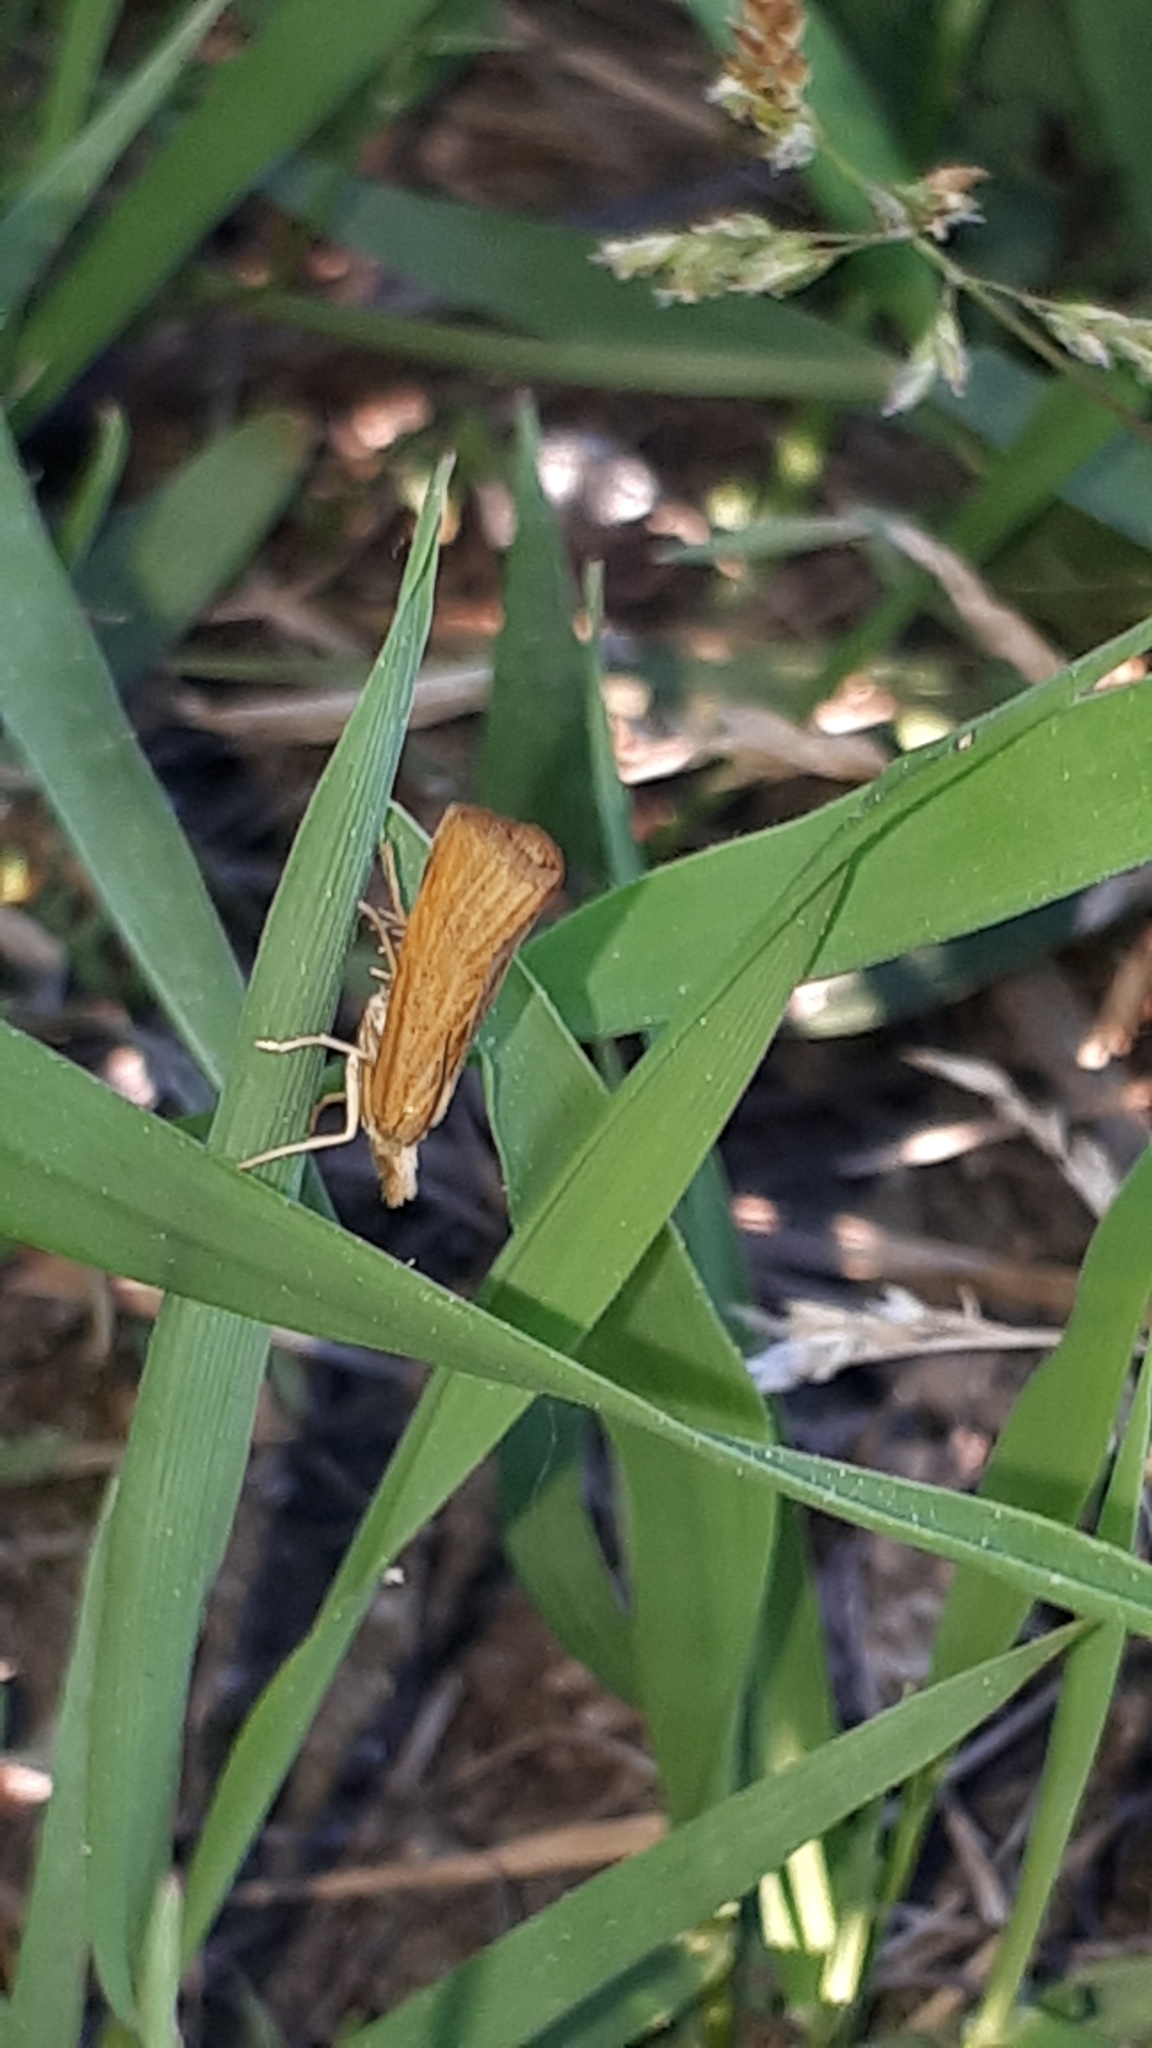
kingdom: Animalia
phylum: Arthropoda
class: Insecta
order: Lepidoptera
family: Crambidae
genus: Pediasia
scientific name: Pediasia luteella
